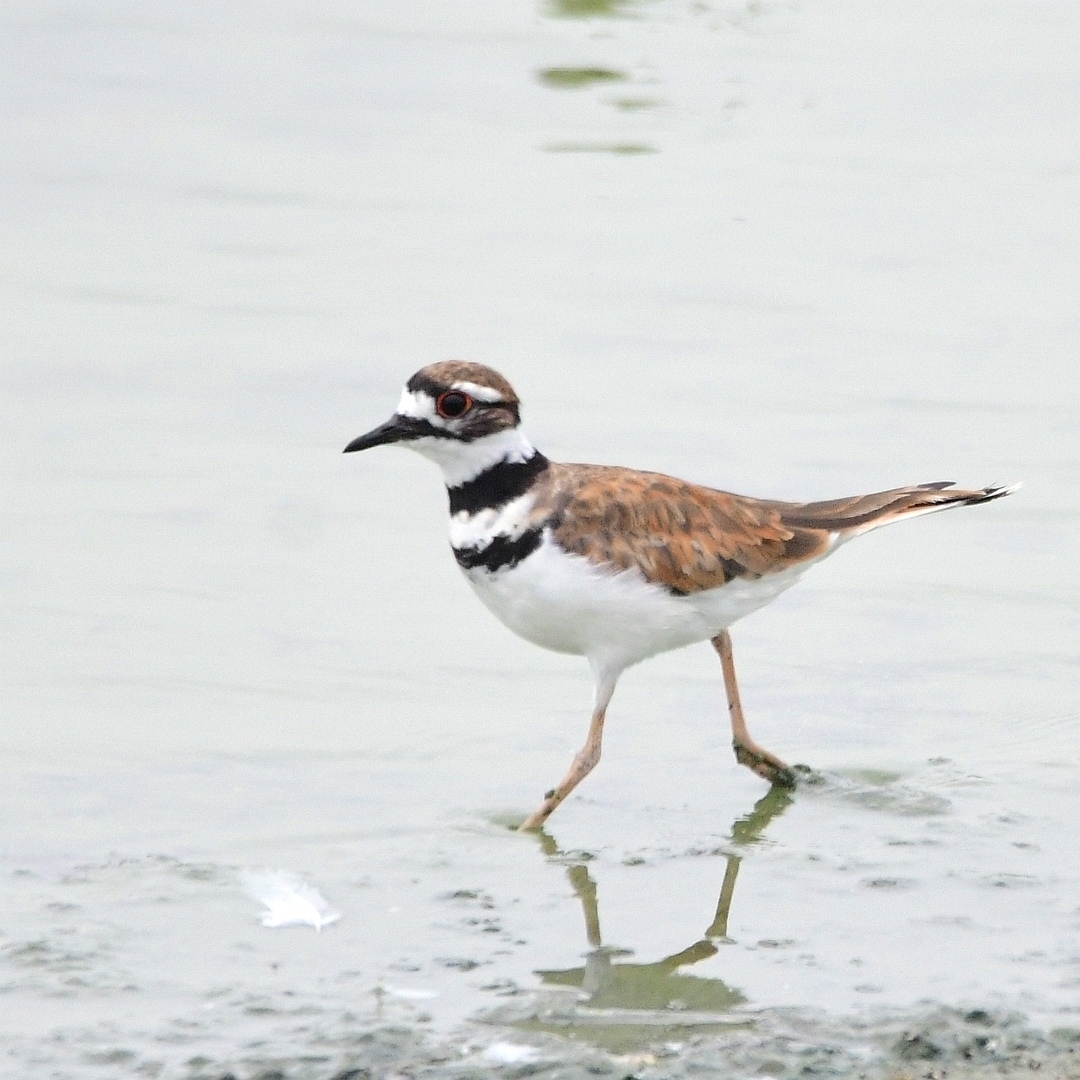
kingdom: Animalia
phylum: Chordata
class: Aves
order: Charadriiformes
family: Charadriidae
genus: Charadrius
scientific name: Charadrius vociferus
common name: Killdeer
